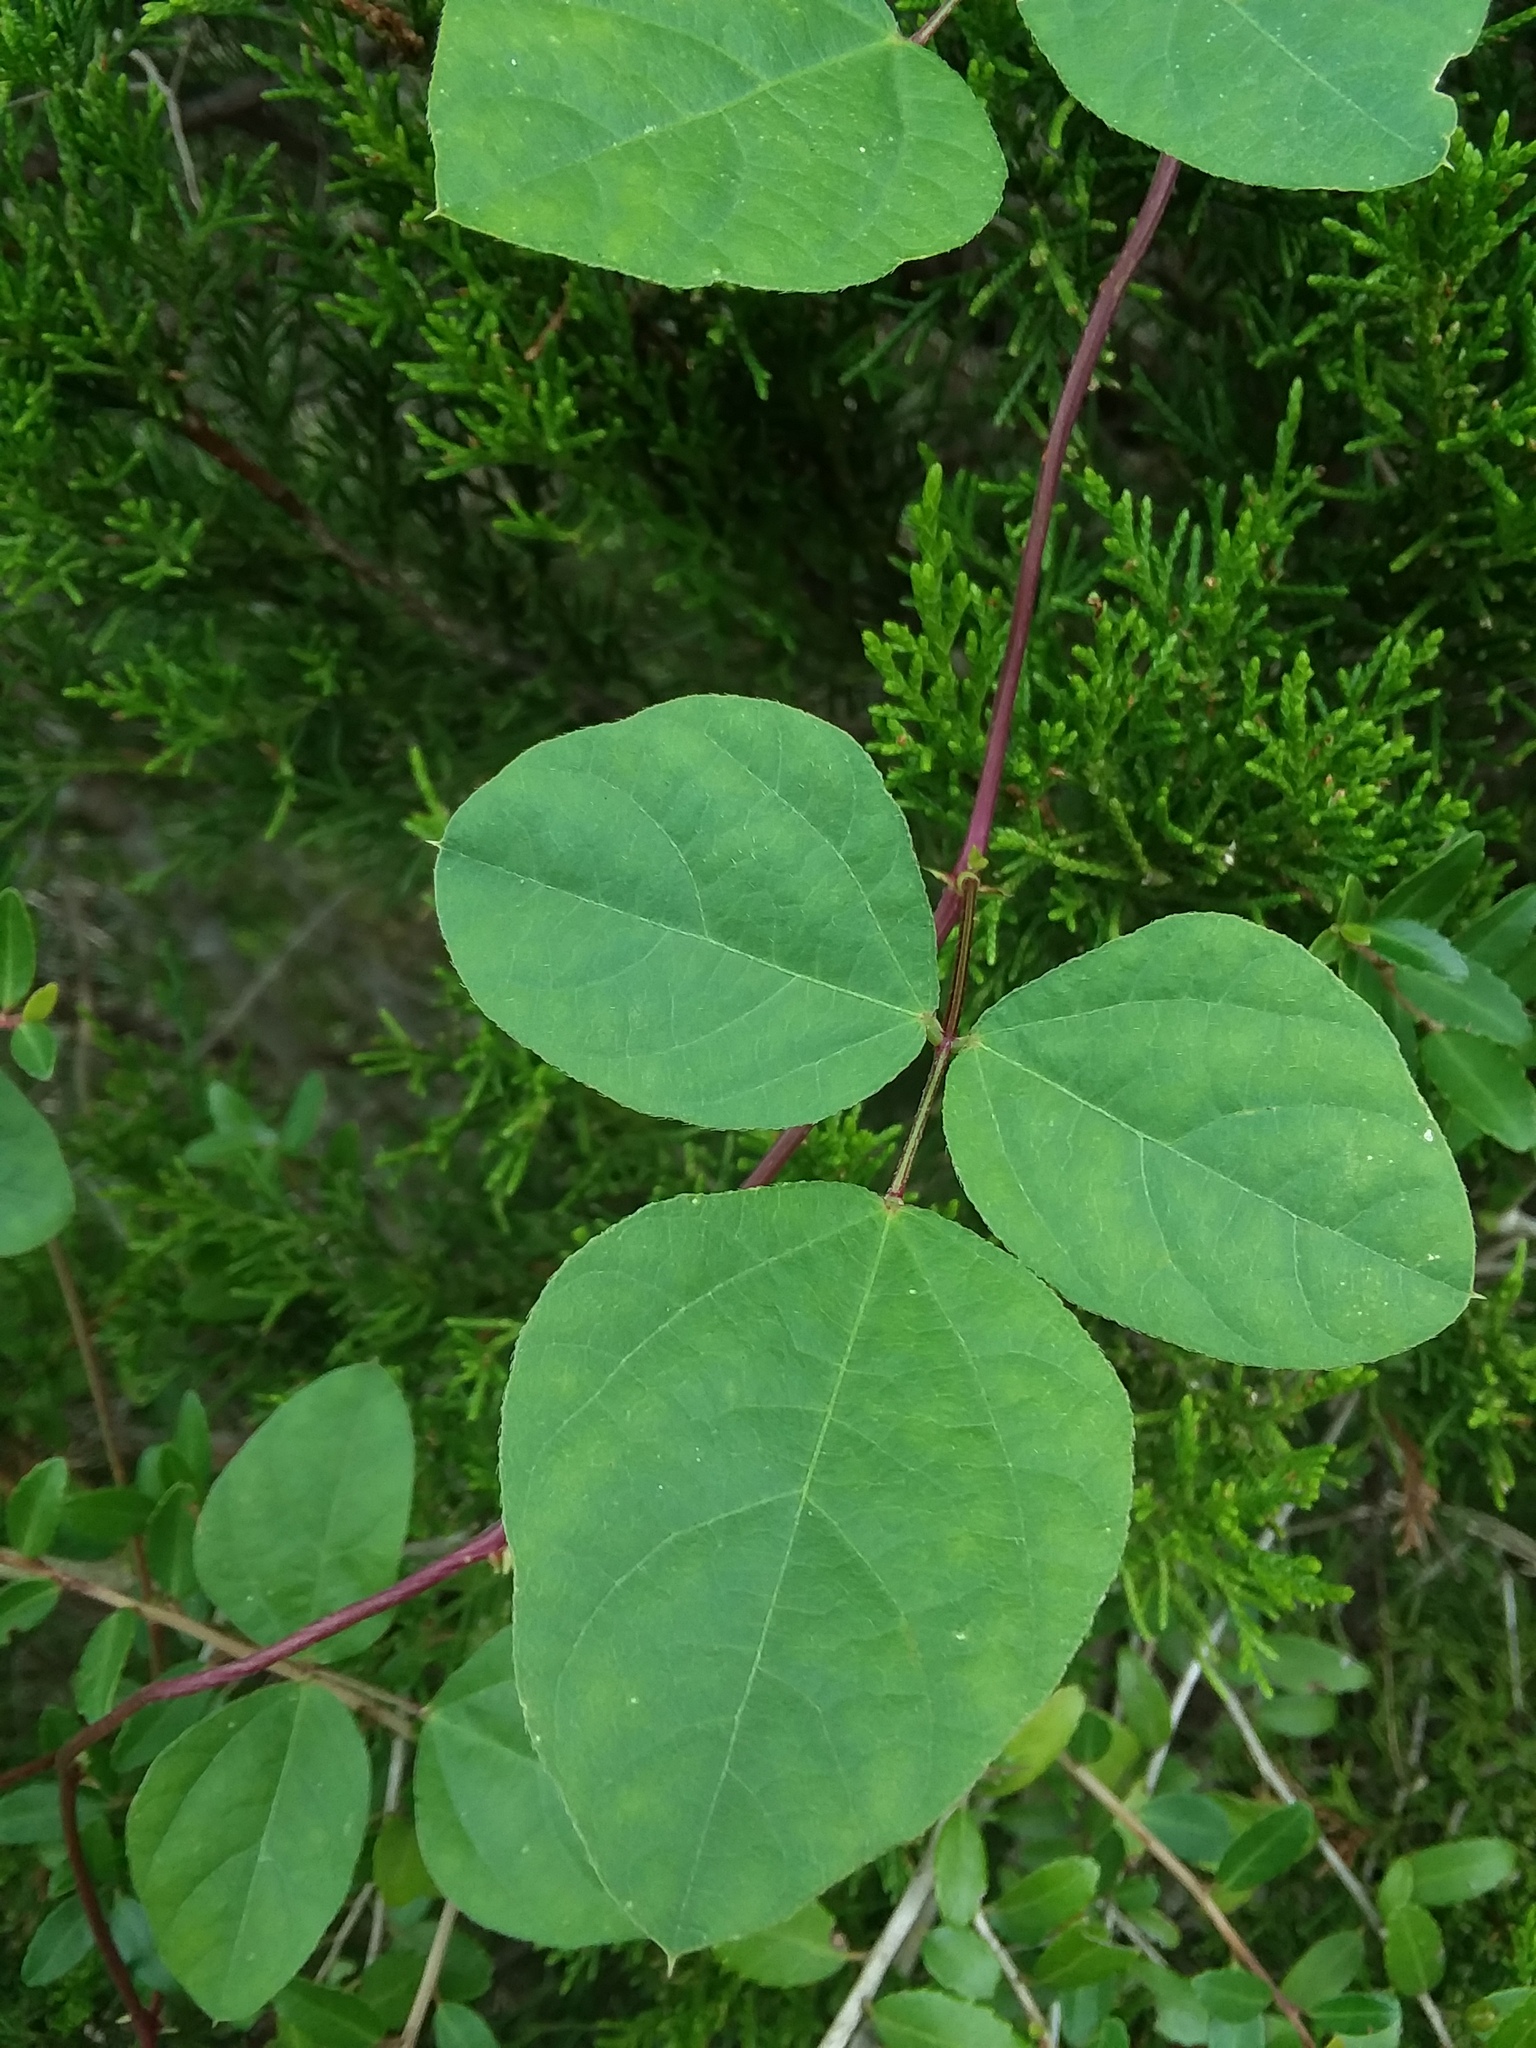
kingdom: Plantae
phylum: Tracheophyta
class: Magnoliopsida
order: Fabales
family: Fabaceae
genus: Strophostyles
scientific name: Strophostyles helvola
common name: Trailing wild bean
